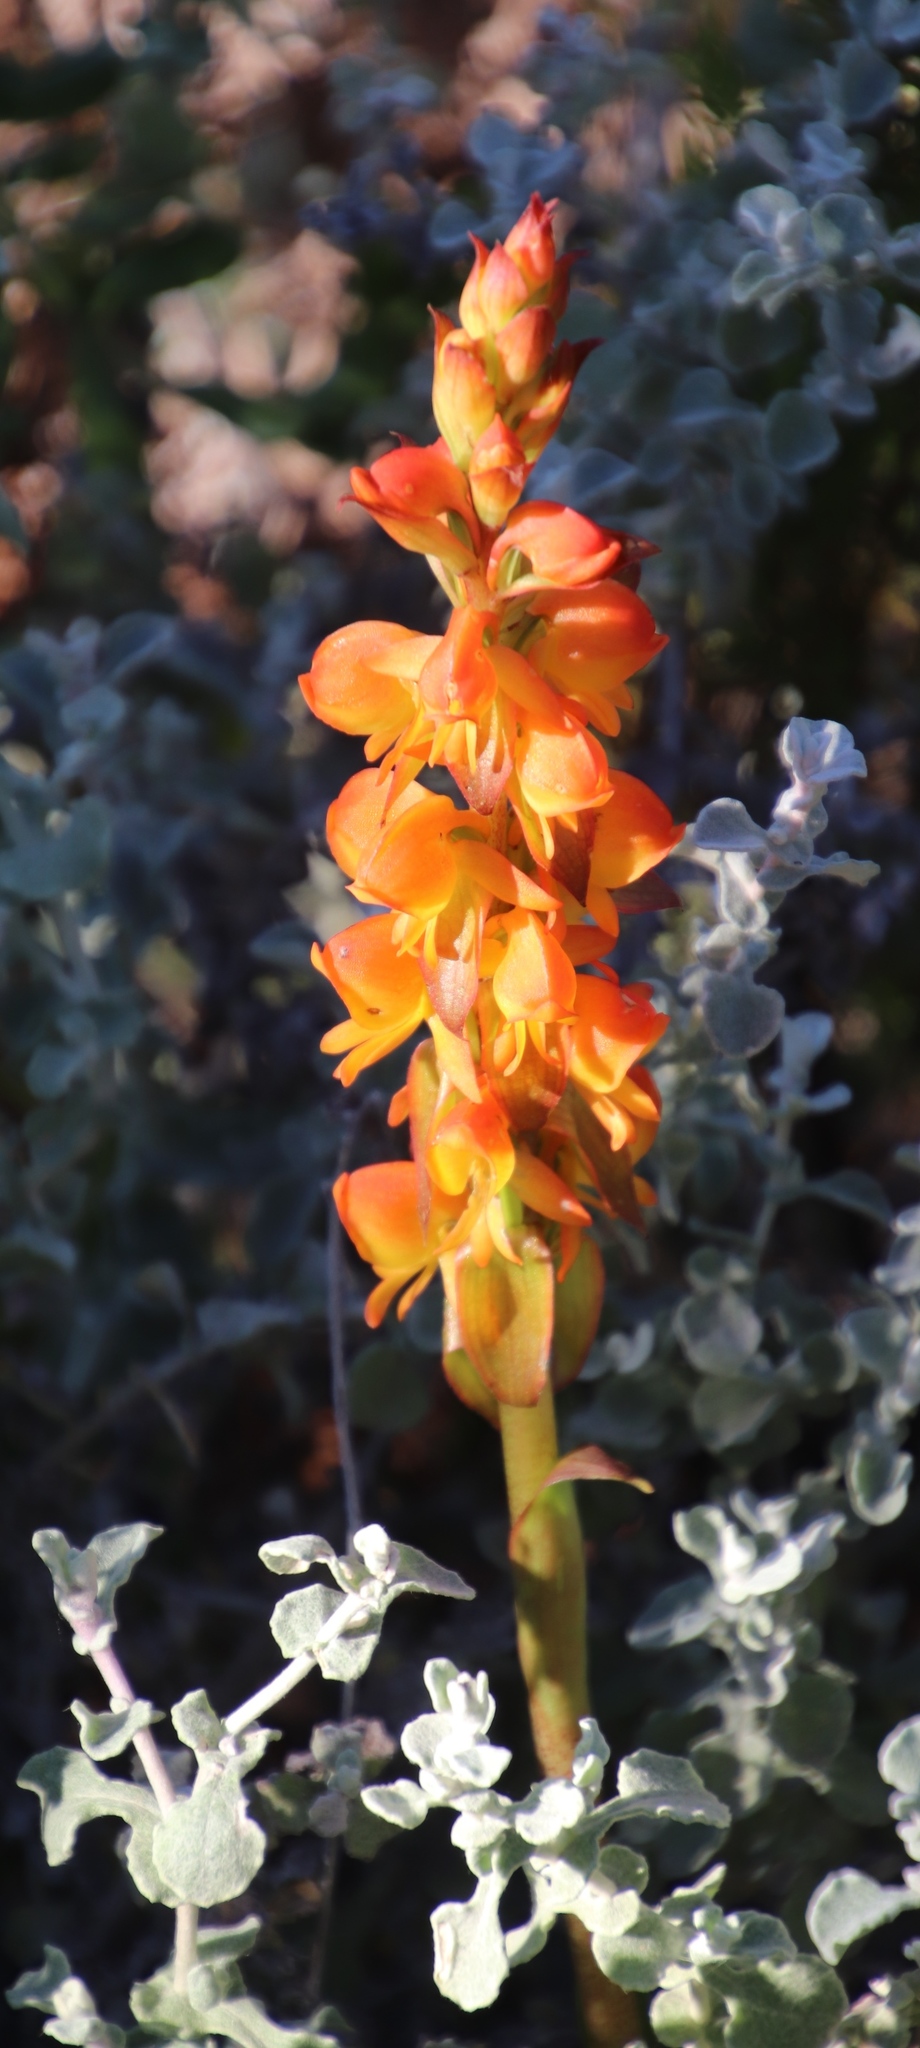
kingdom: Plantae
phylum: Tracheophyta
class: Liliopsida
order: Asparagales
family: Orchidaceae
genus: Satyrium
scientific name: Satyrium coriifolium
